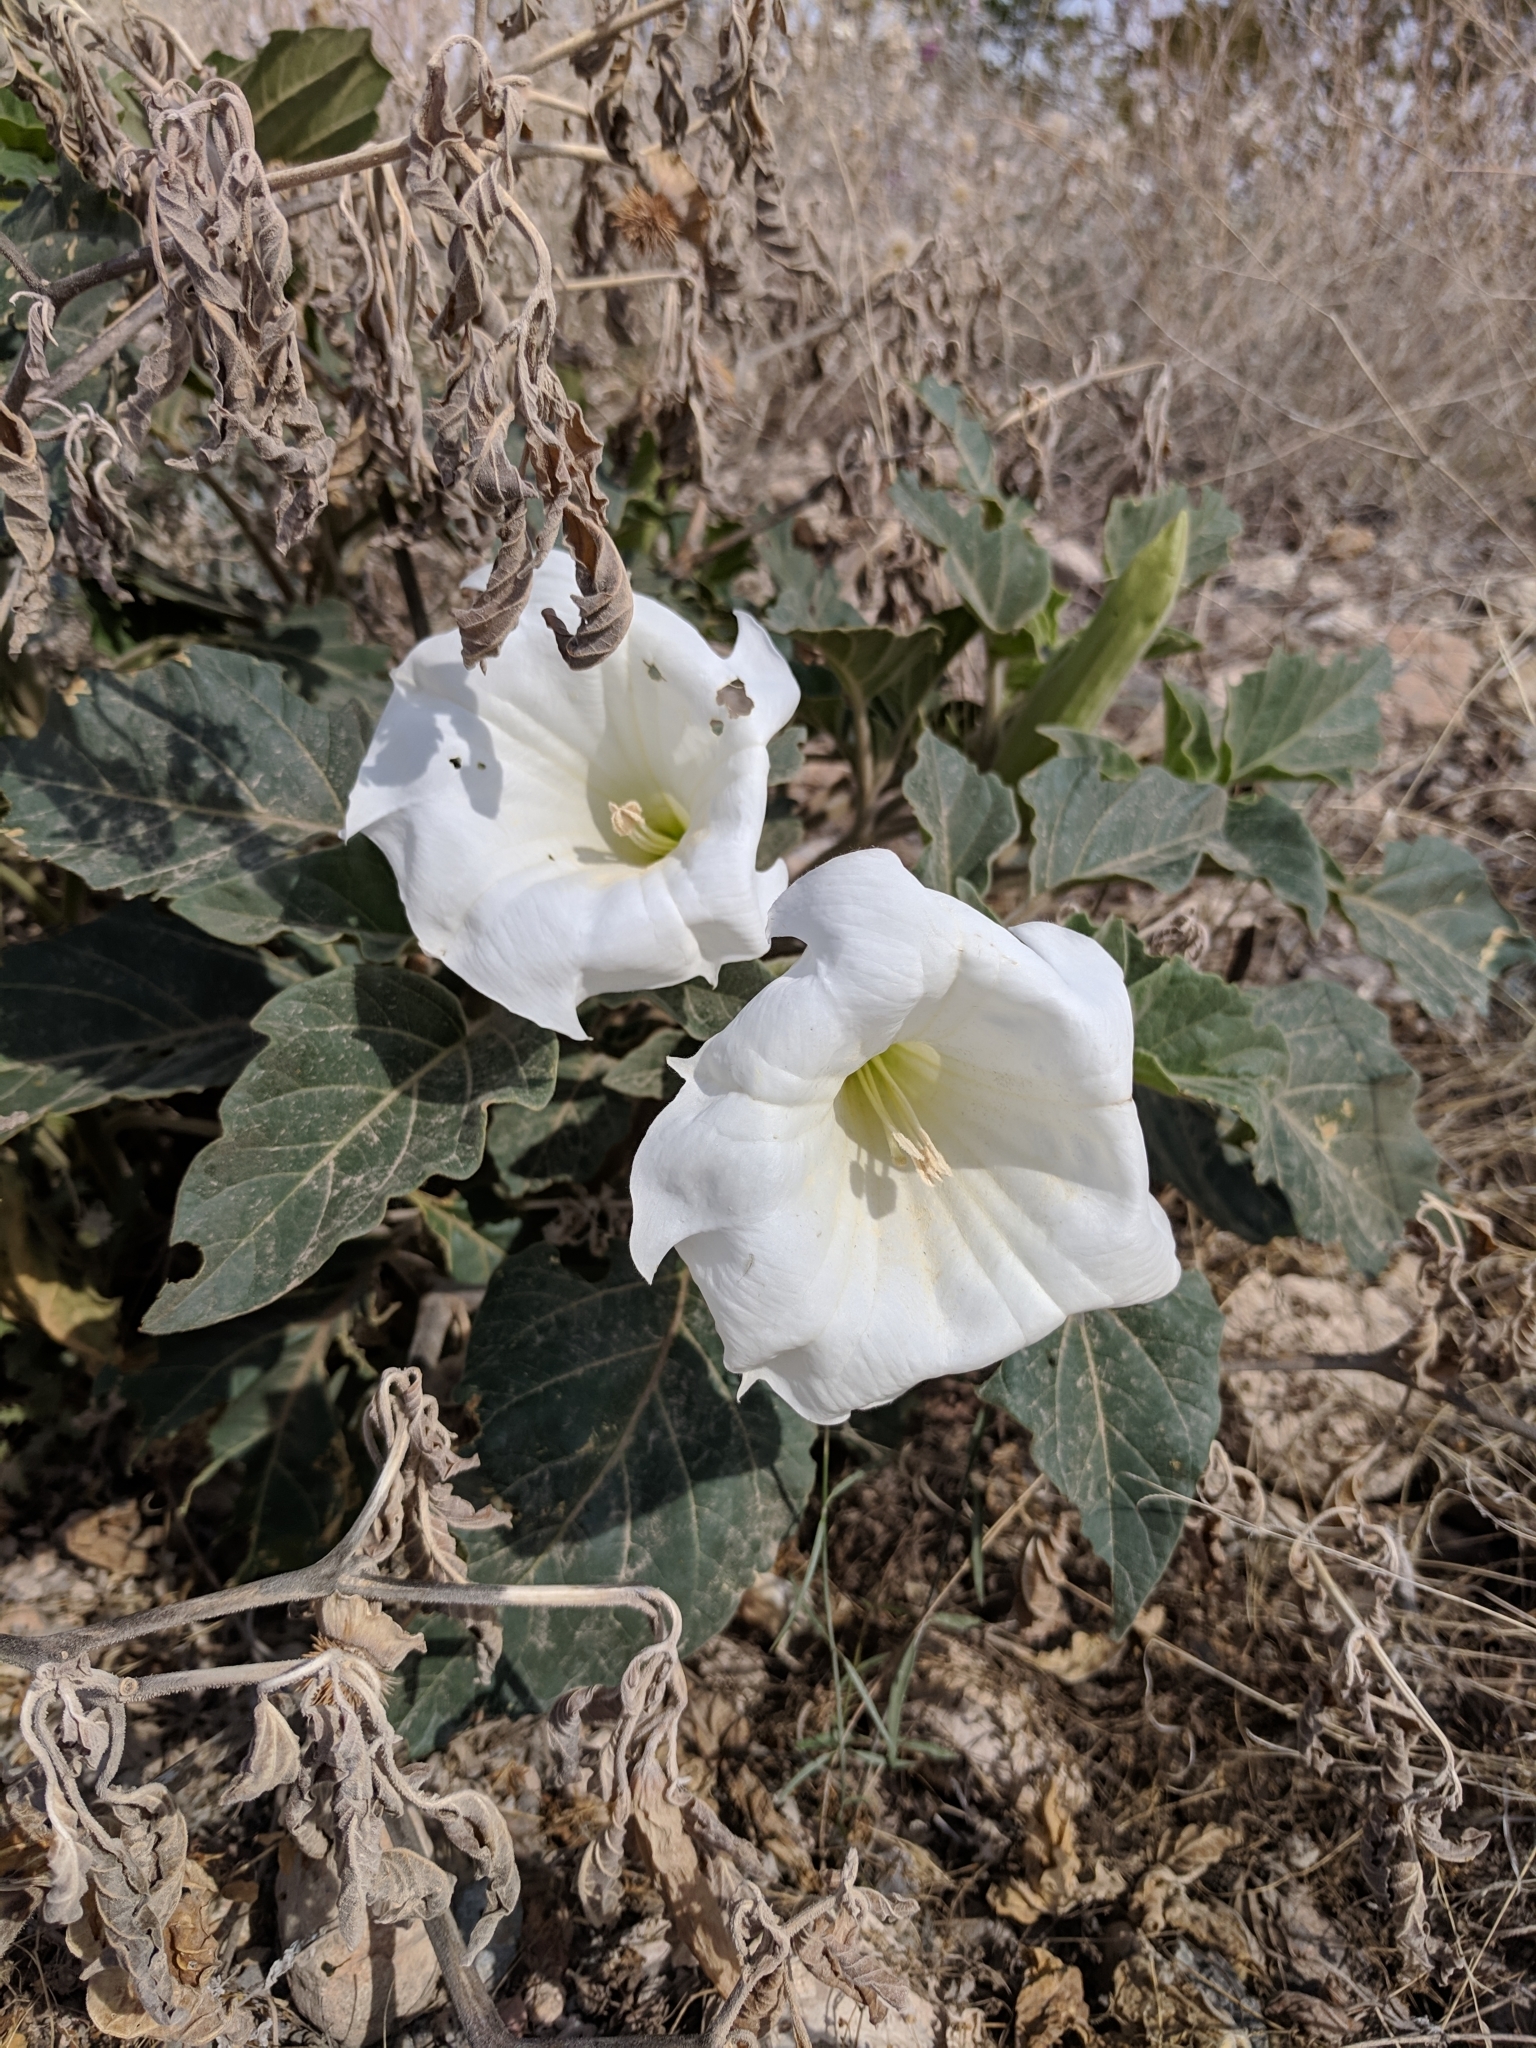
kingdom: Plantae
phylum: Tracheophyta
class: Magnoliopsida
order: Solanales
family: Solanaceae
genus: Datura
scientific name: Datura wrightii
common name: Sacred thorn-apple
